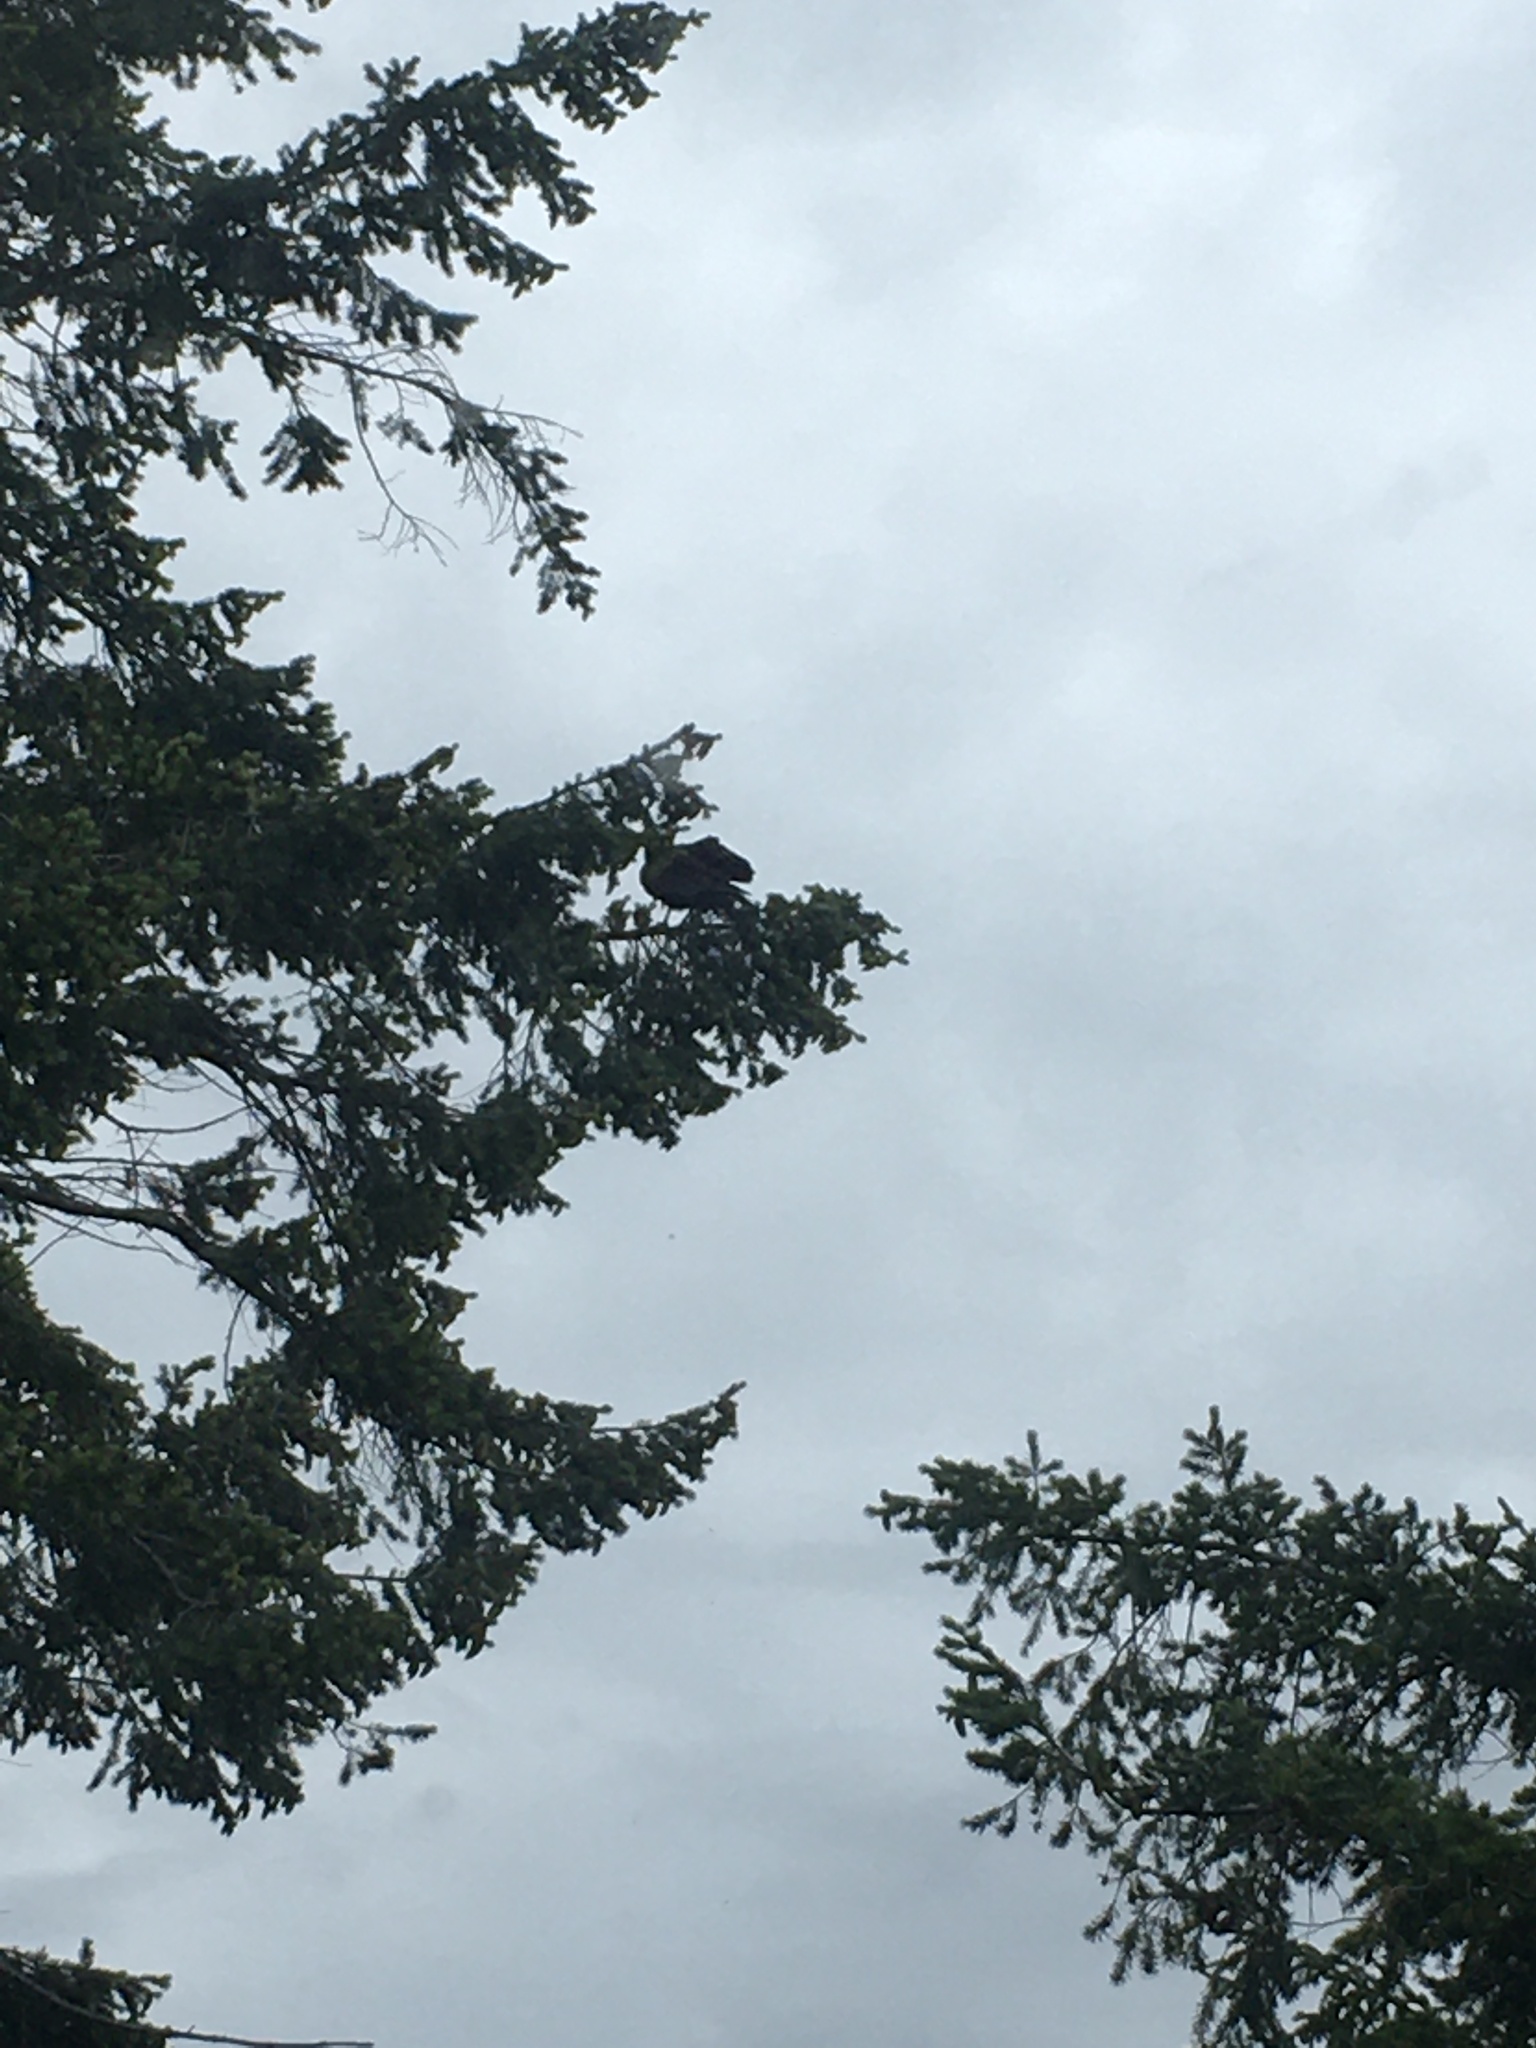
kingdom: Animalia
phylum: Chordata
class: Aves
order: Accipitriformes
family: Cathartidae
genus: Cathartes
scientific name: Cathartes aura
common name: Turkey vulture
